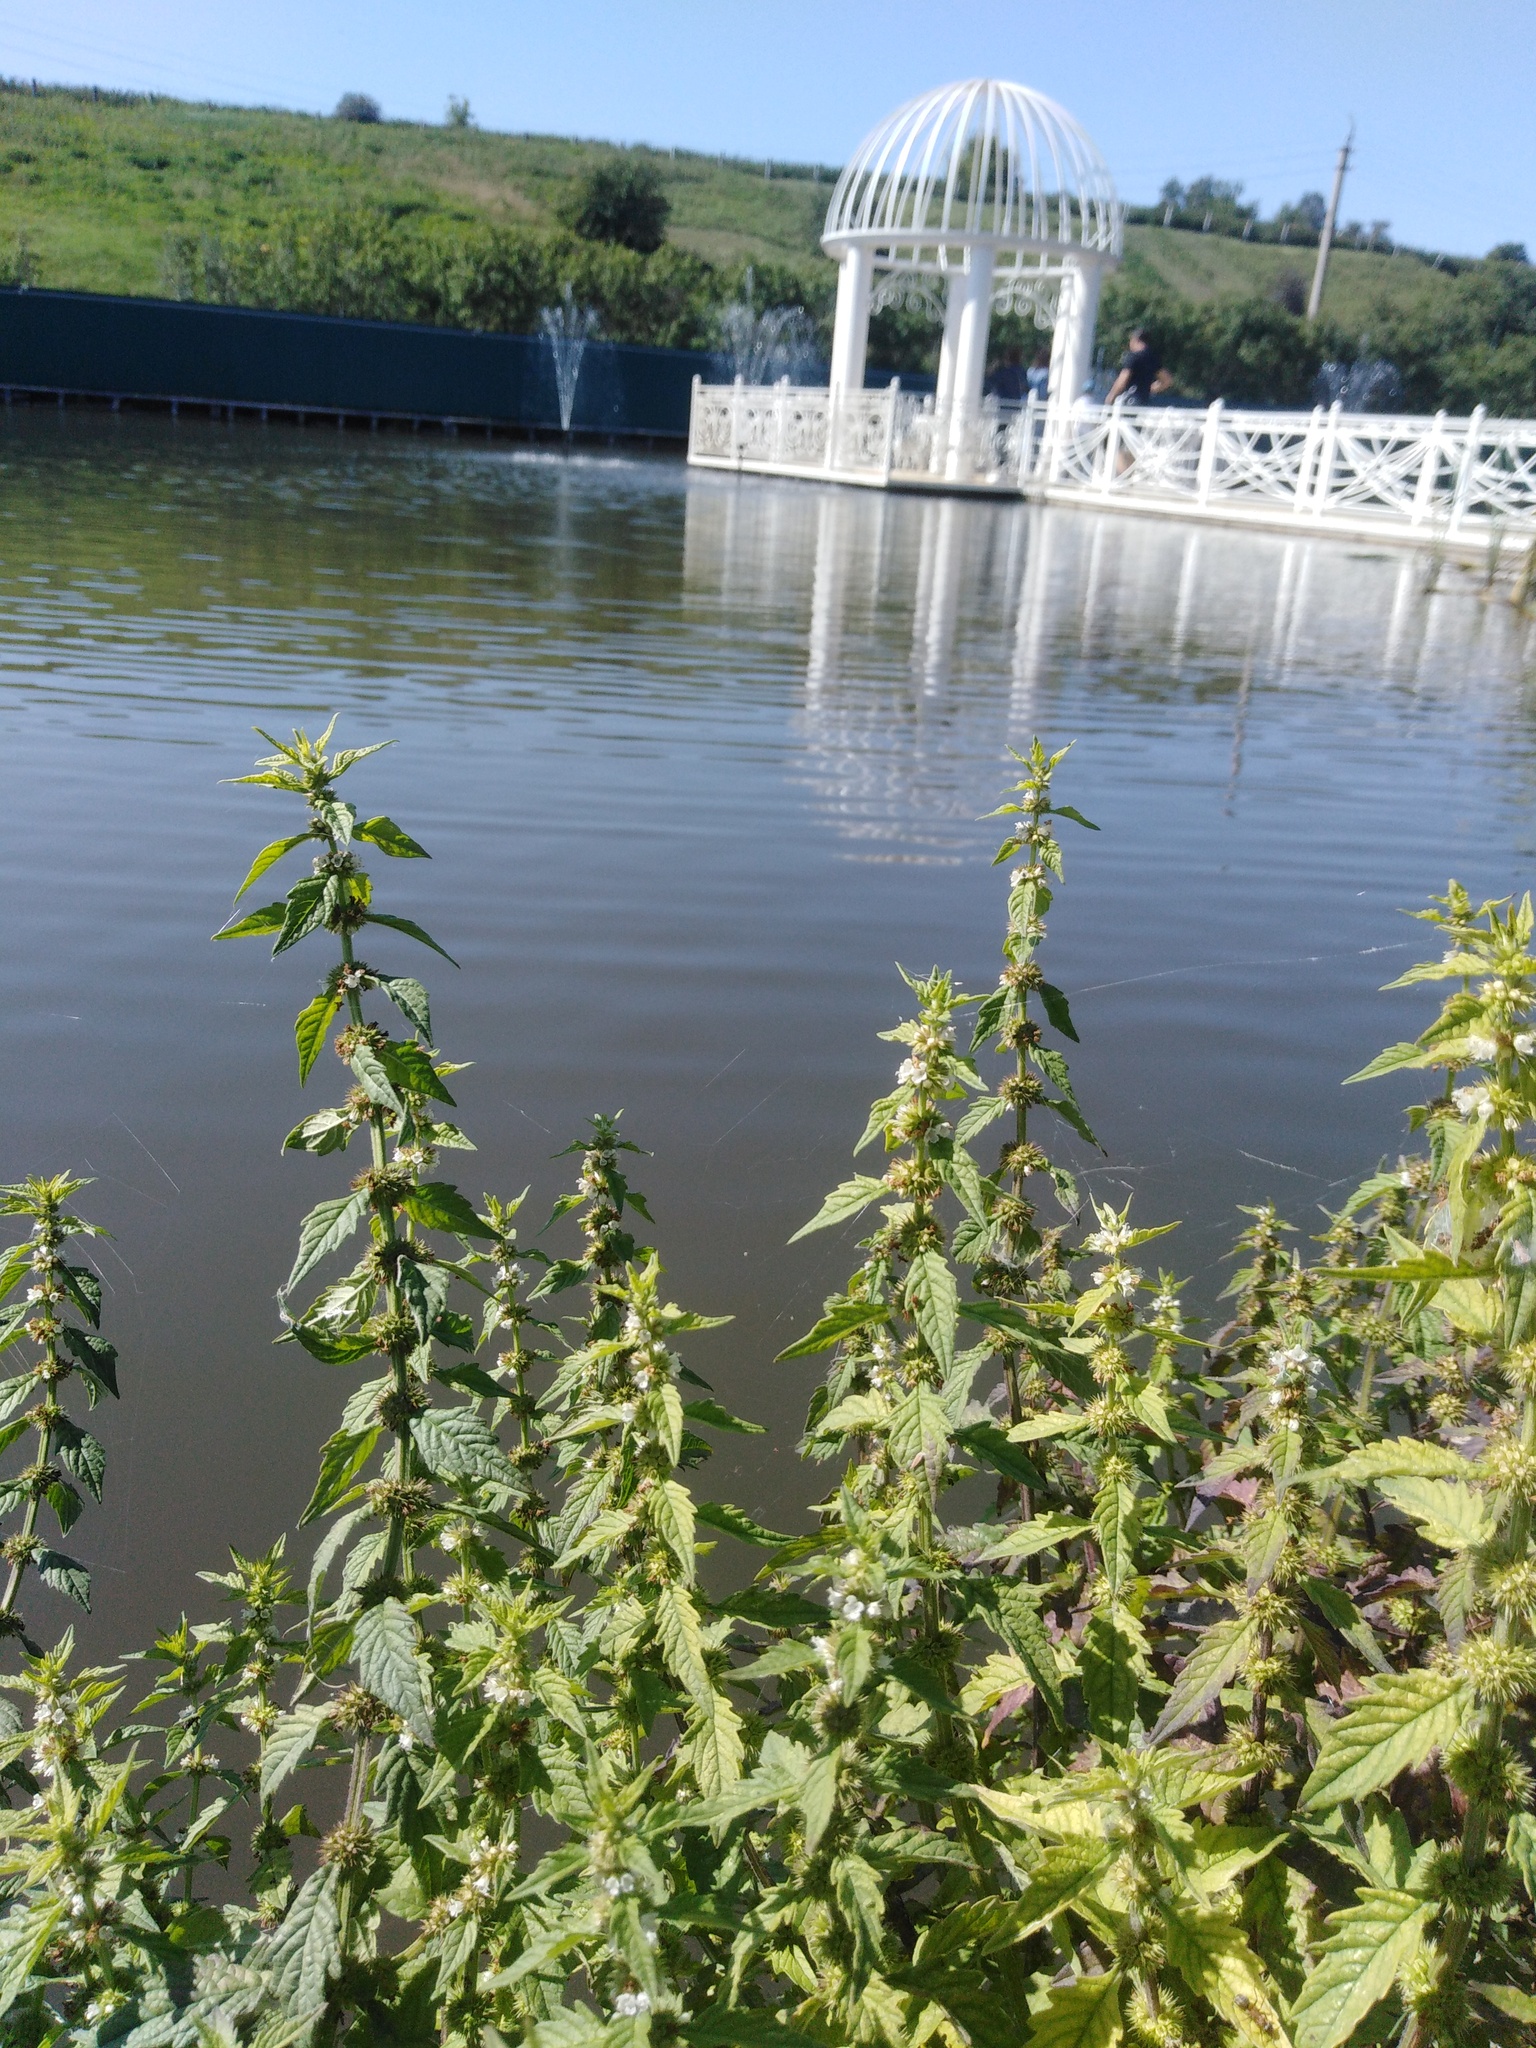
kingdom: Plantae
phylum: Tracheophyta
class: Magnoliopsida
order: Lamiales
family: Lamiaceae
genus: Lycopus
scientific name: Lycopus europaeus
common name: European bugleweed
